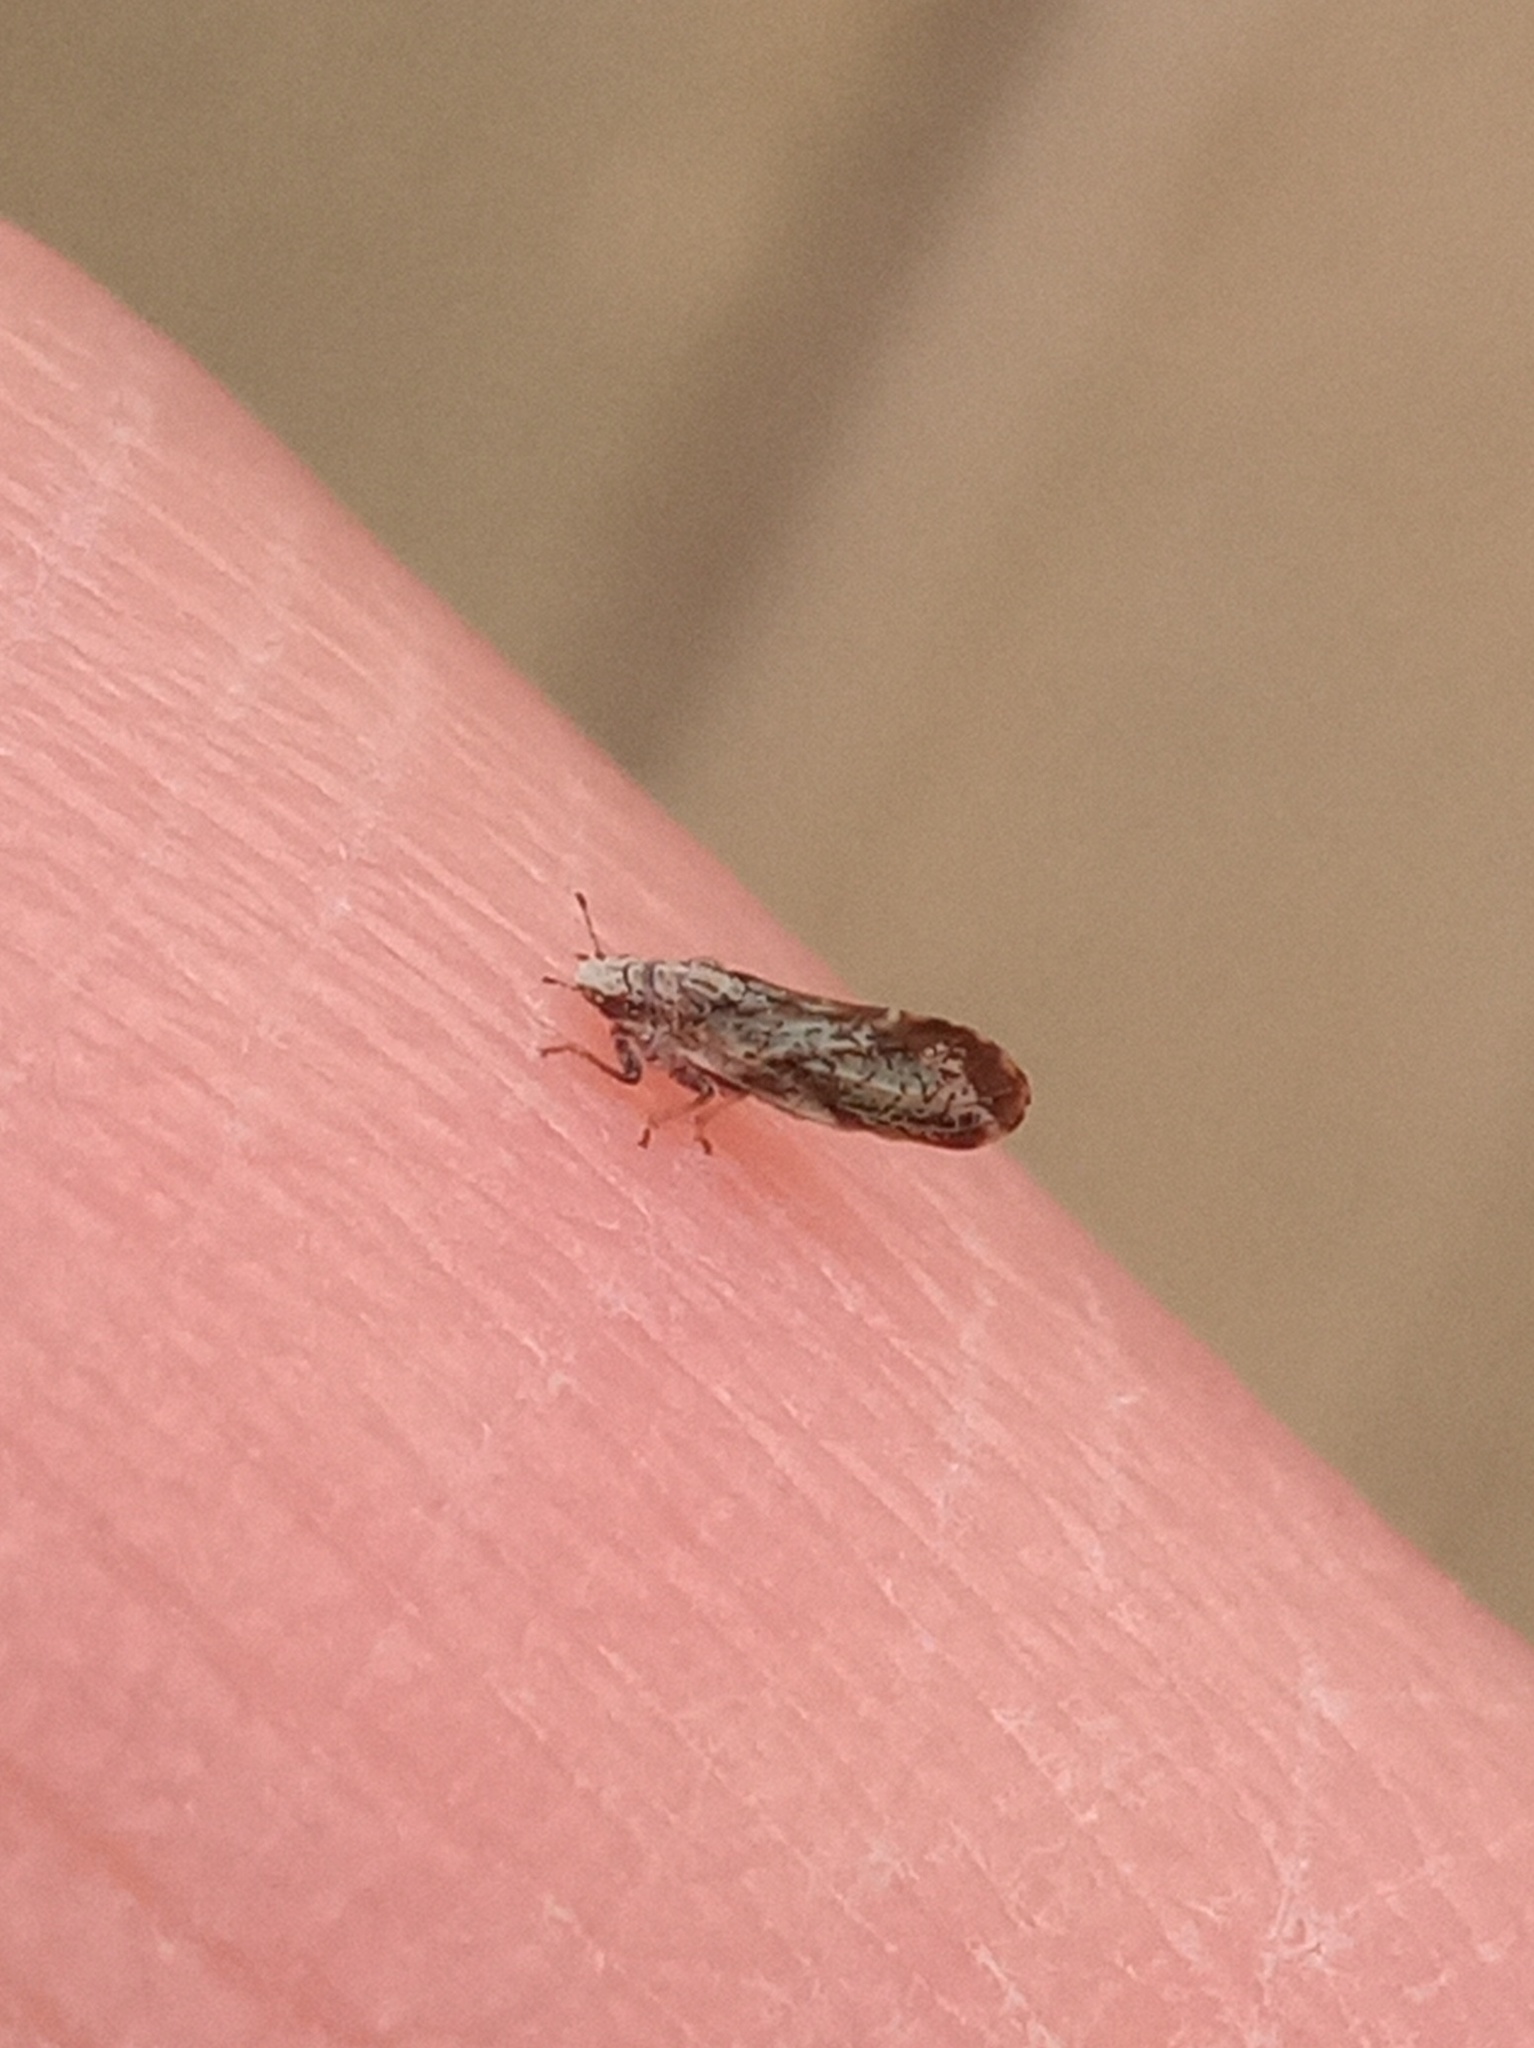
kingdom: Animalia
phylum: Arthropoda
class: Insecta
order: Hemiptera
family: Liviidae
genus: Diaphorina
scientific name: Diaphorina citri
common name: Asian citrus psyllid
